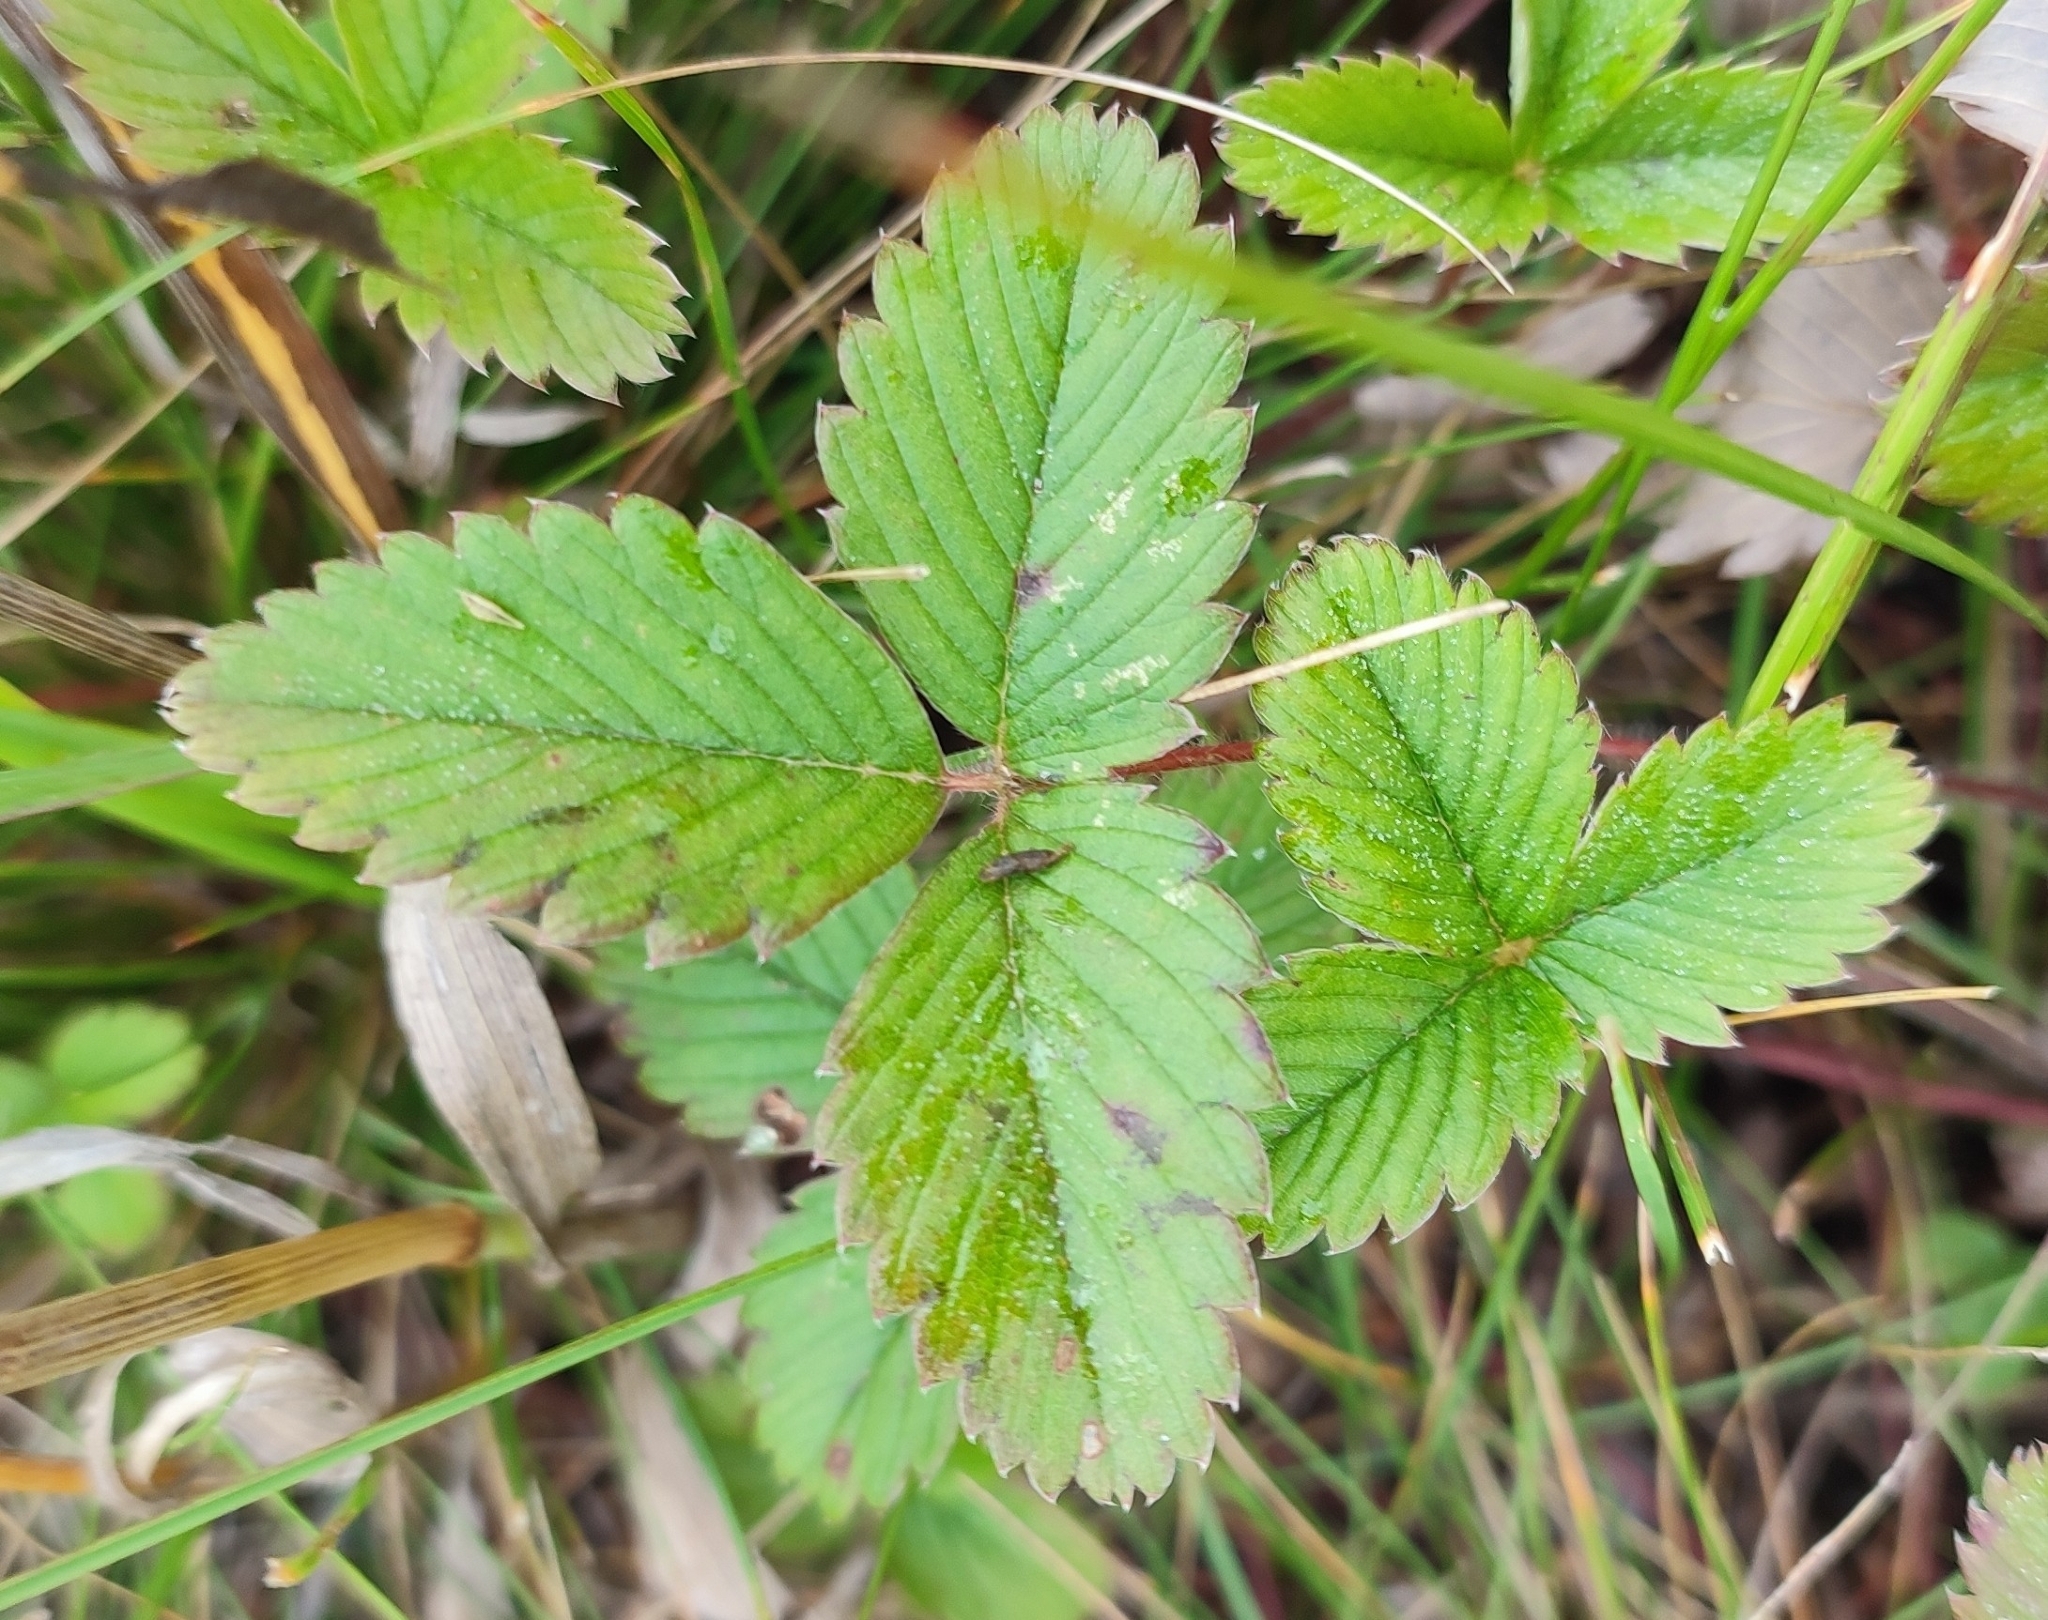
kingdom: Plantae
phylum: Tracheophyta
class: Magnoliopsida
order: Rosales
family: Rosaceae
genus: Fragaria
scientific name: Fragaria viridis
